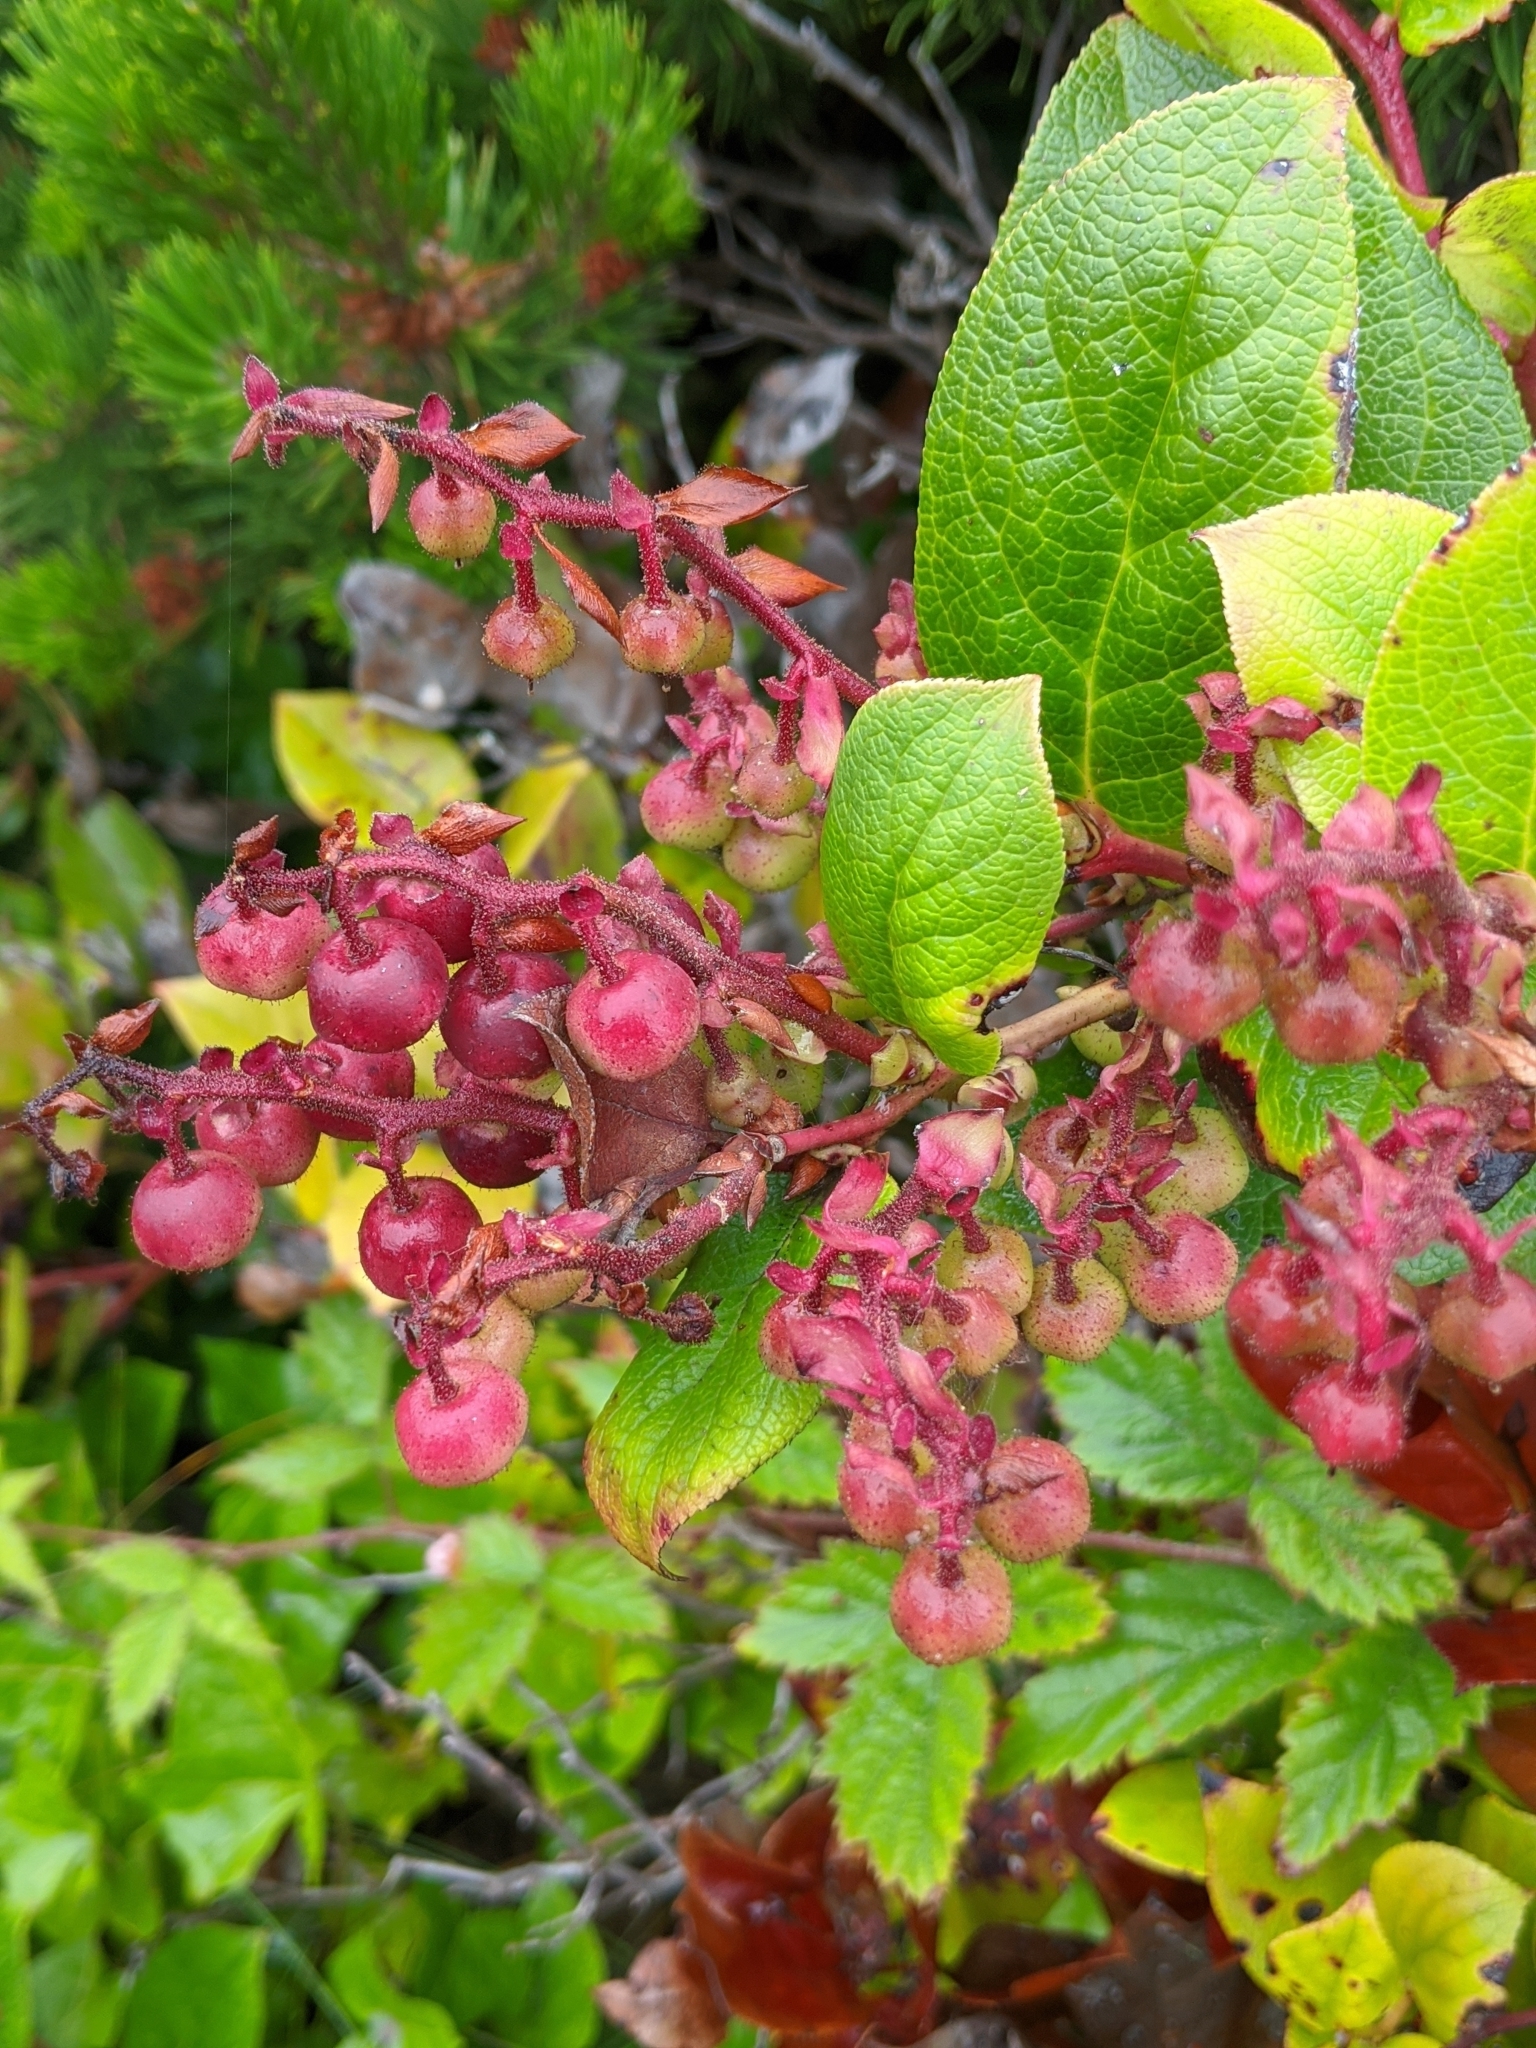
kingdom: Plantae
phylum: Tracheophyta
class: Magnoliopsida
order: Ericales
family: Ericaceae
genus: Gaultheria
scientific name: Gaultheria shallon
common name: Shallon
